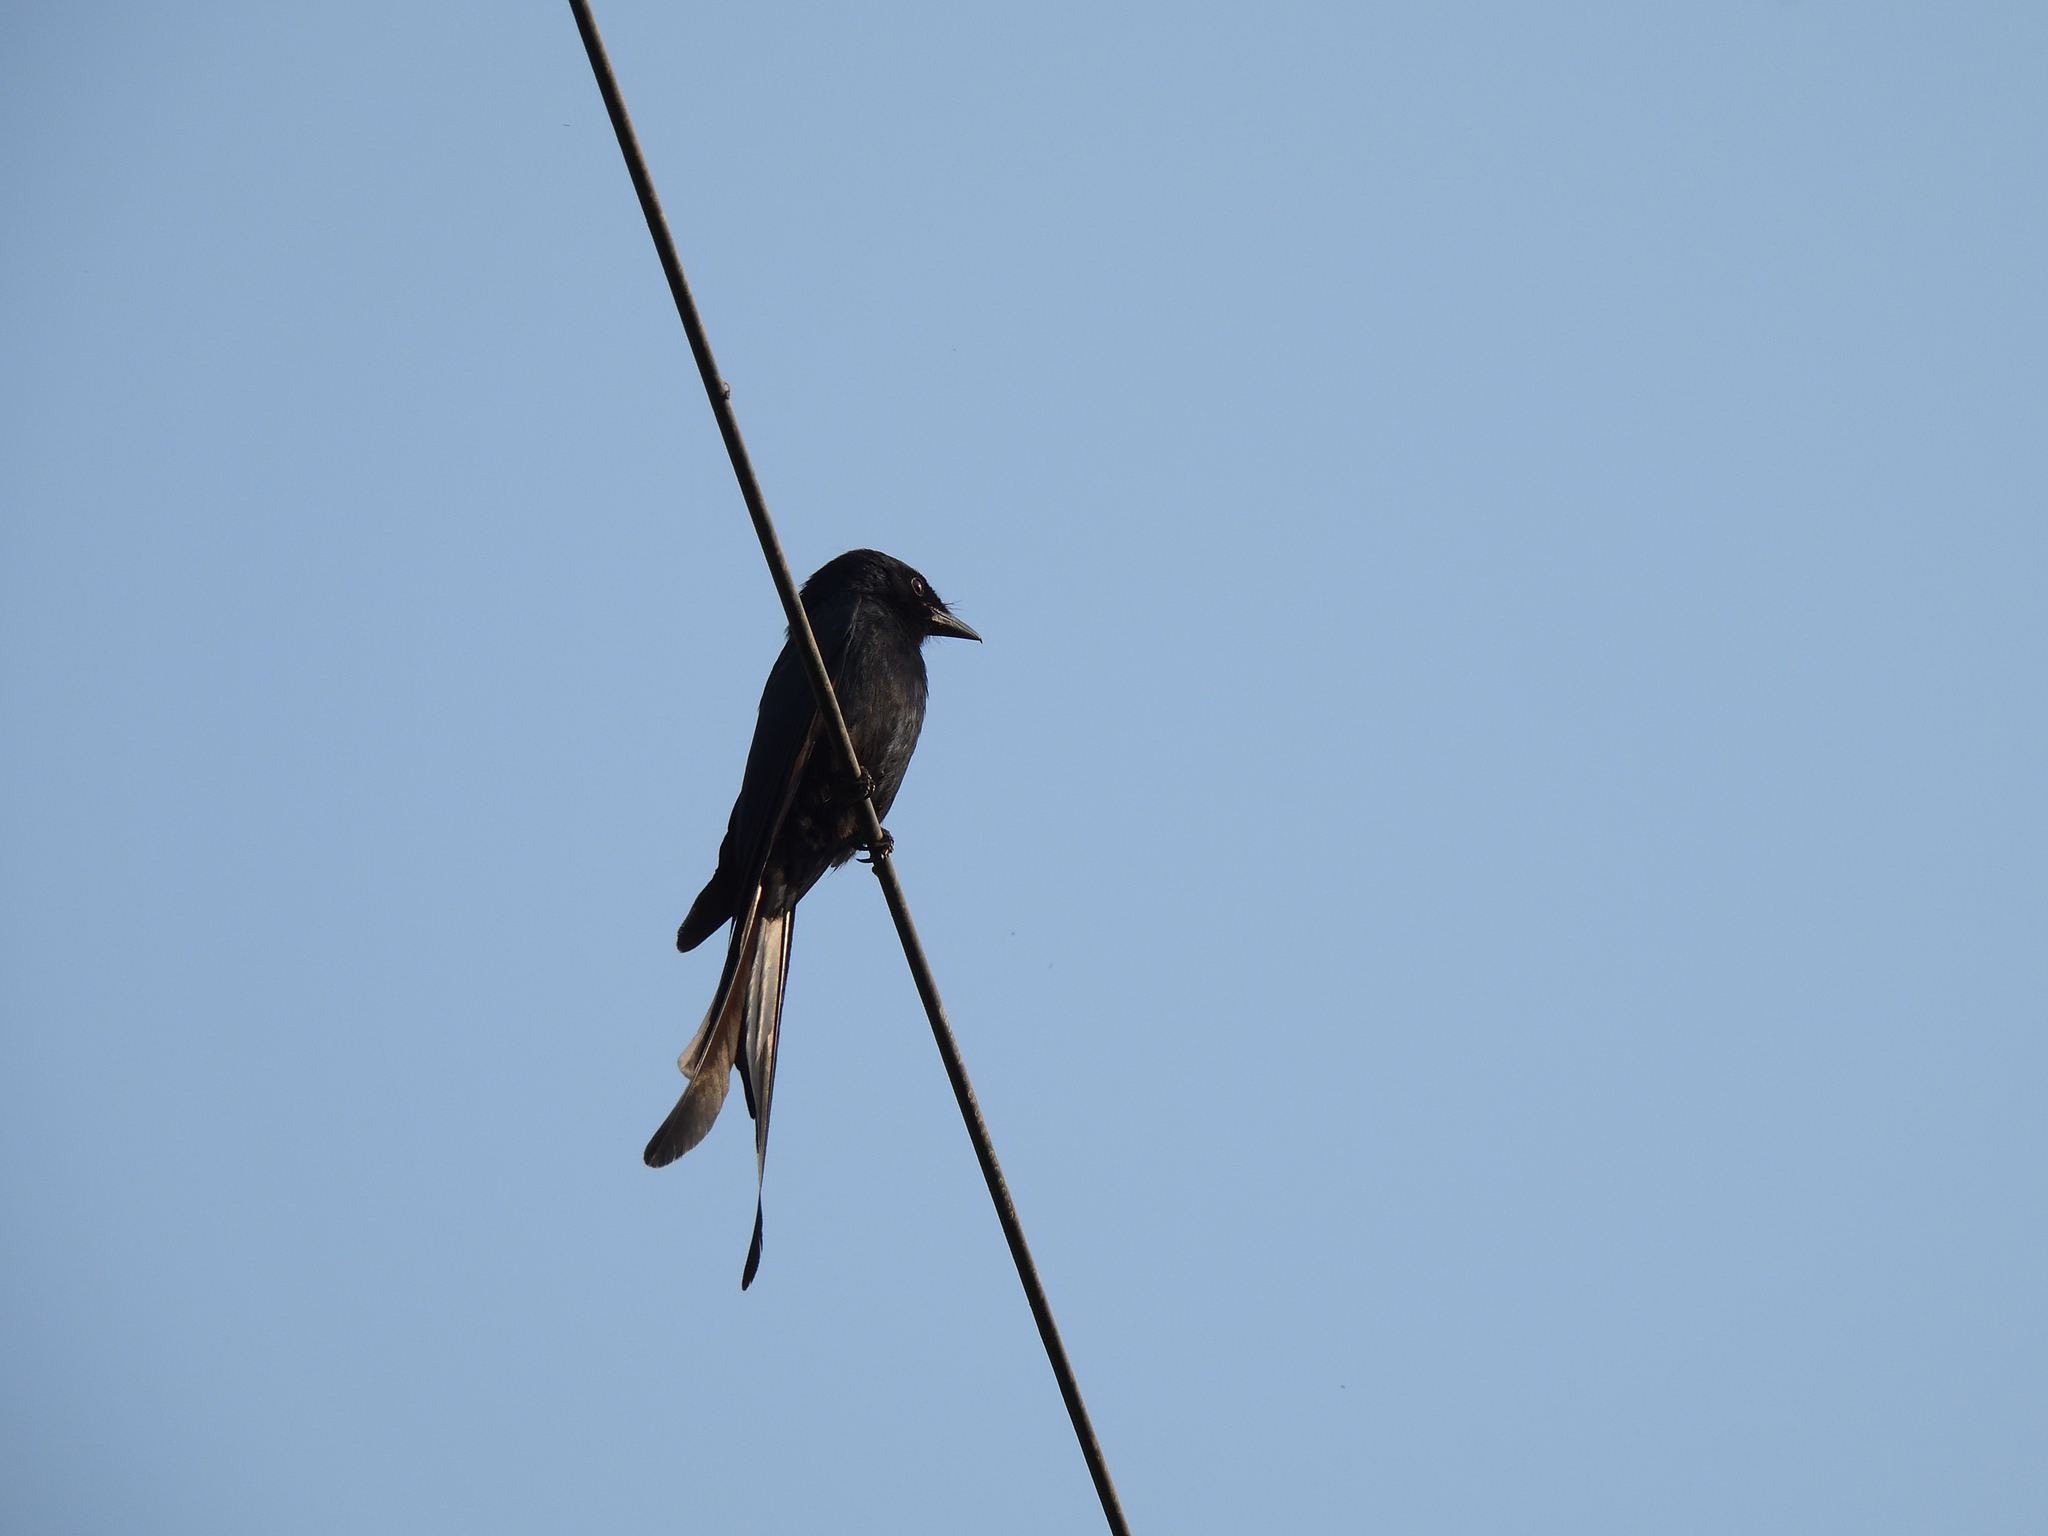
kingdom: Animalia
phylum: Chordata
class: Aves
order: Passeriformes
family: Dicruridae
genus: Dicrurus
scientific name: Dicrurus macrocercus
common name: Black drongo
